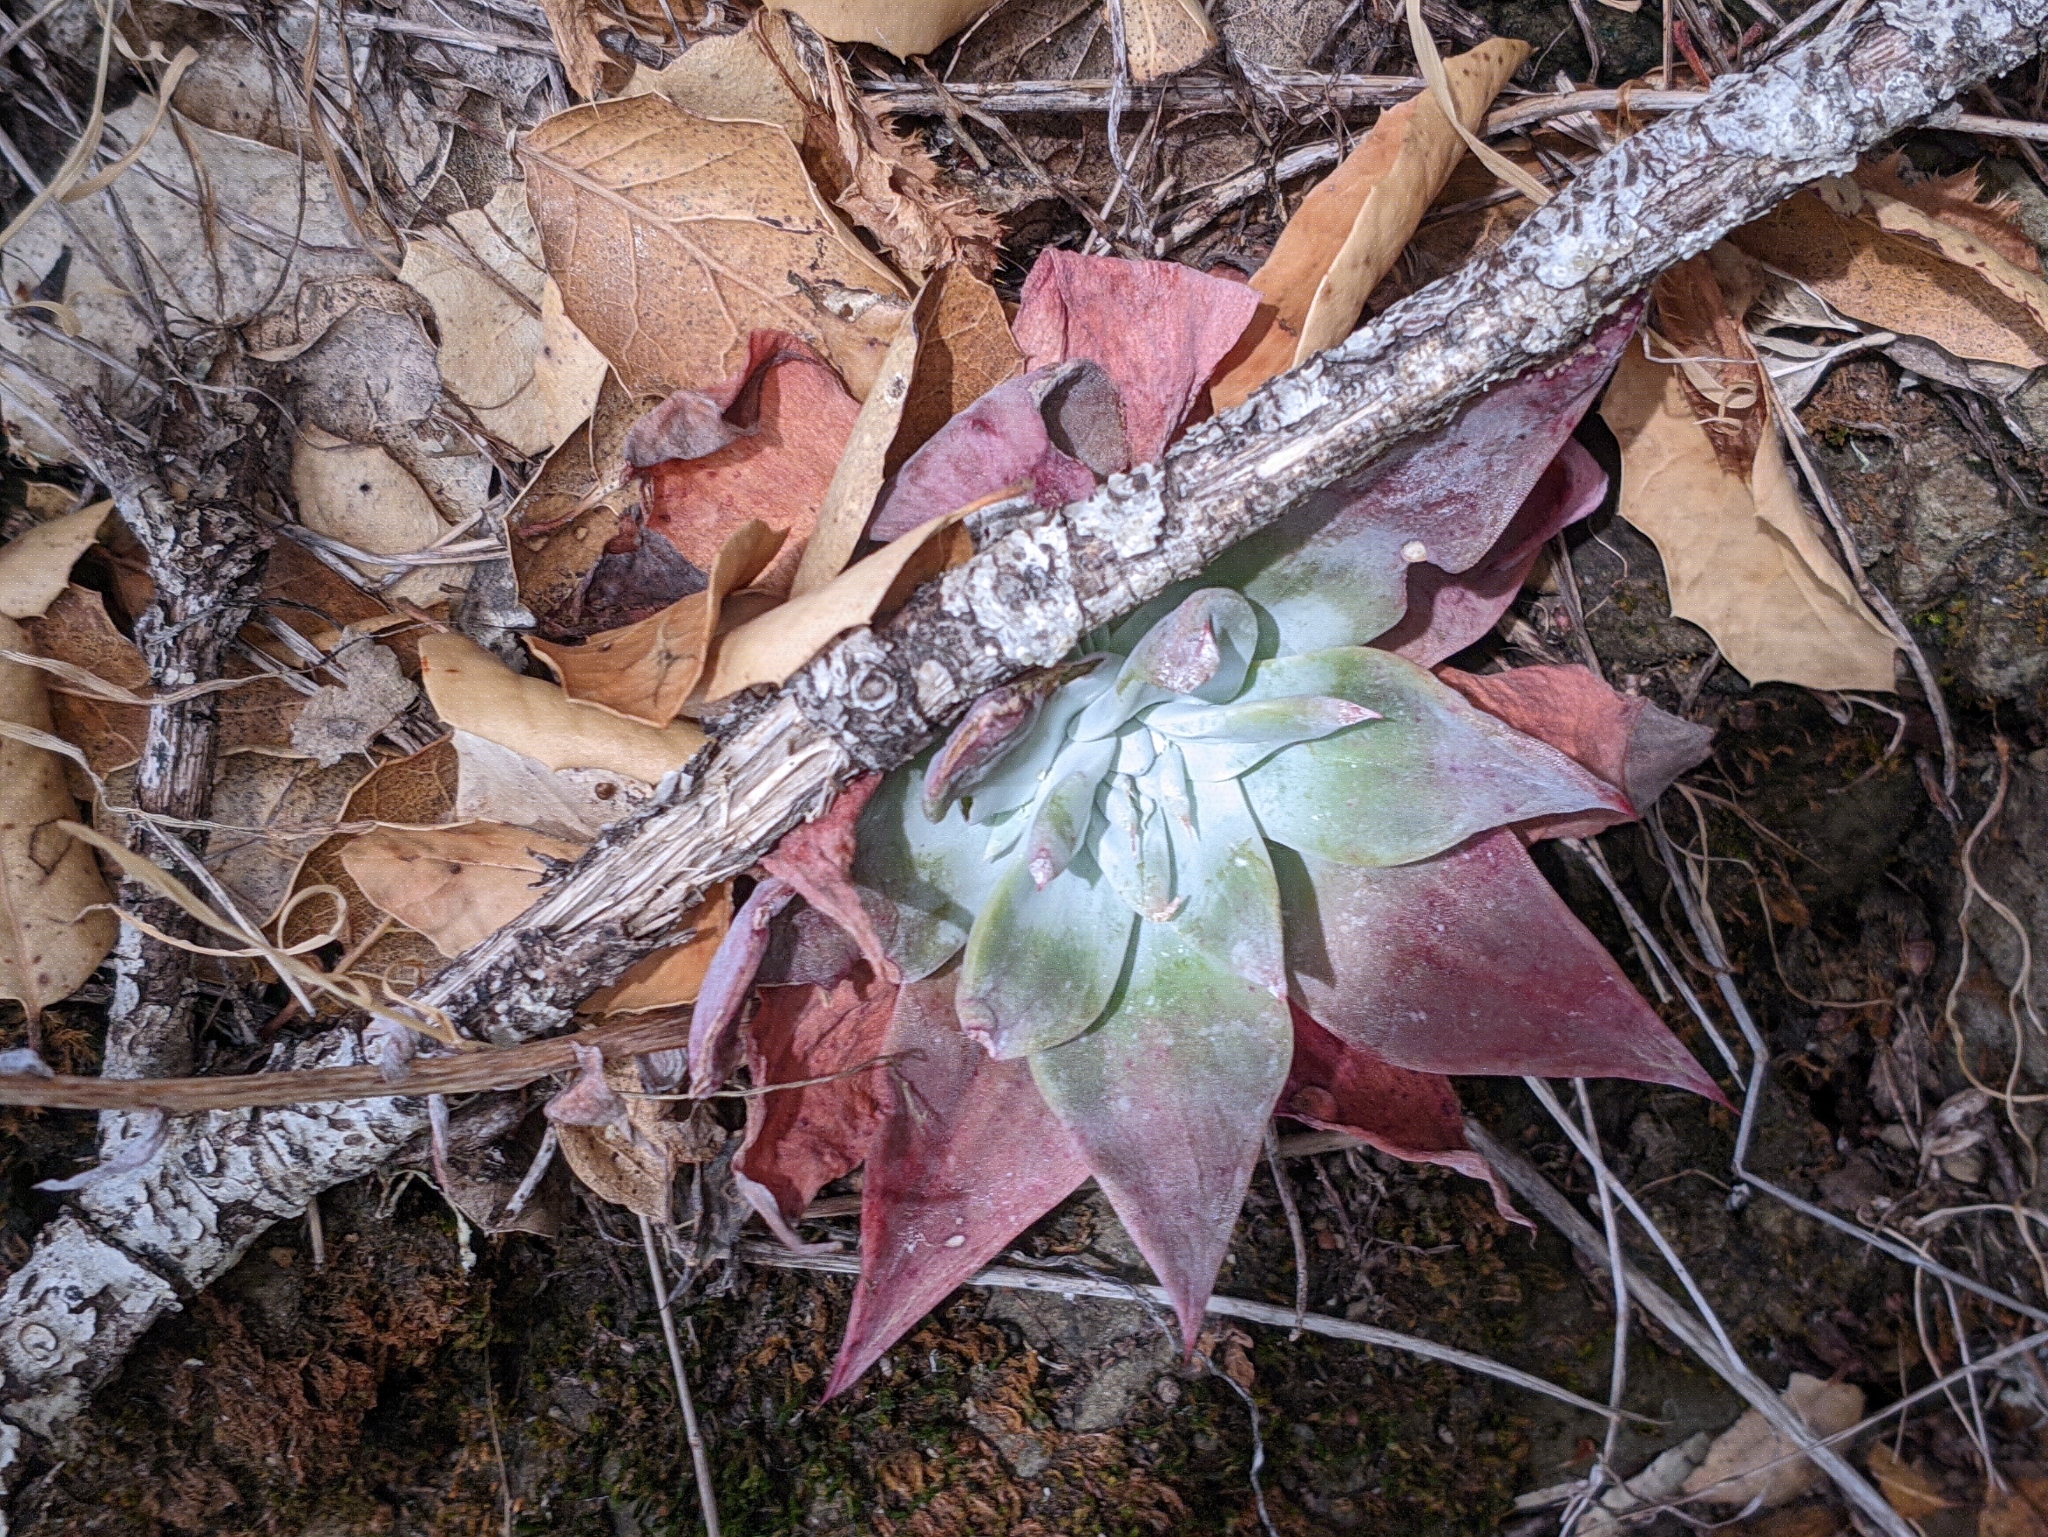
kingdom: Plantae
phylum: Tracheophyta
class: Magnoliopsida
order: Saxifragales
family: Crassulaceae
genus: Dudleya
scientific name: Dudleya cymosa
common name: Canyon dudleya
